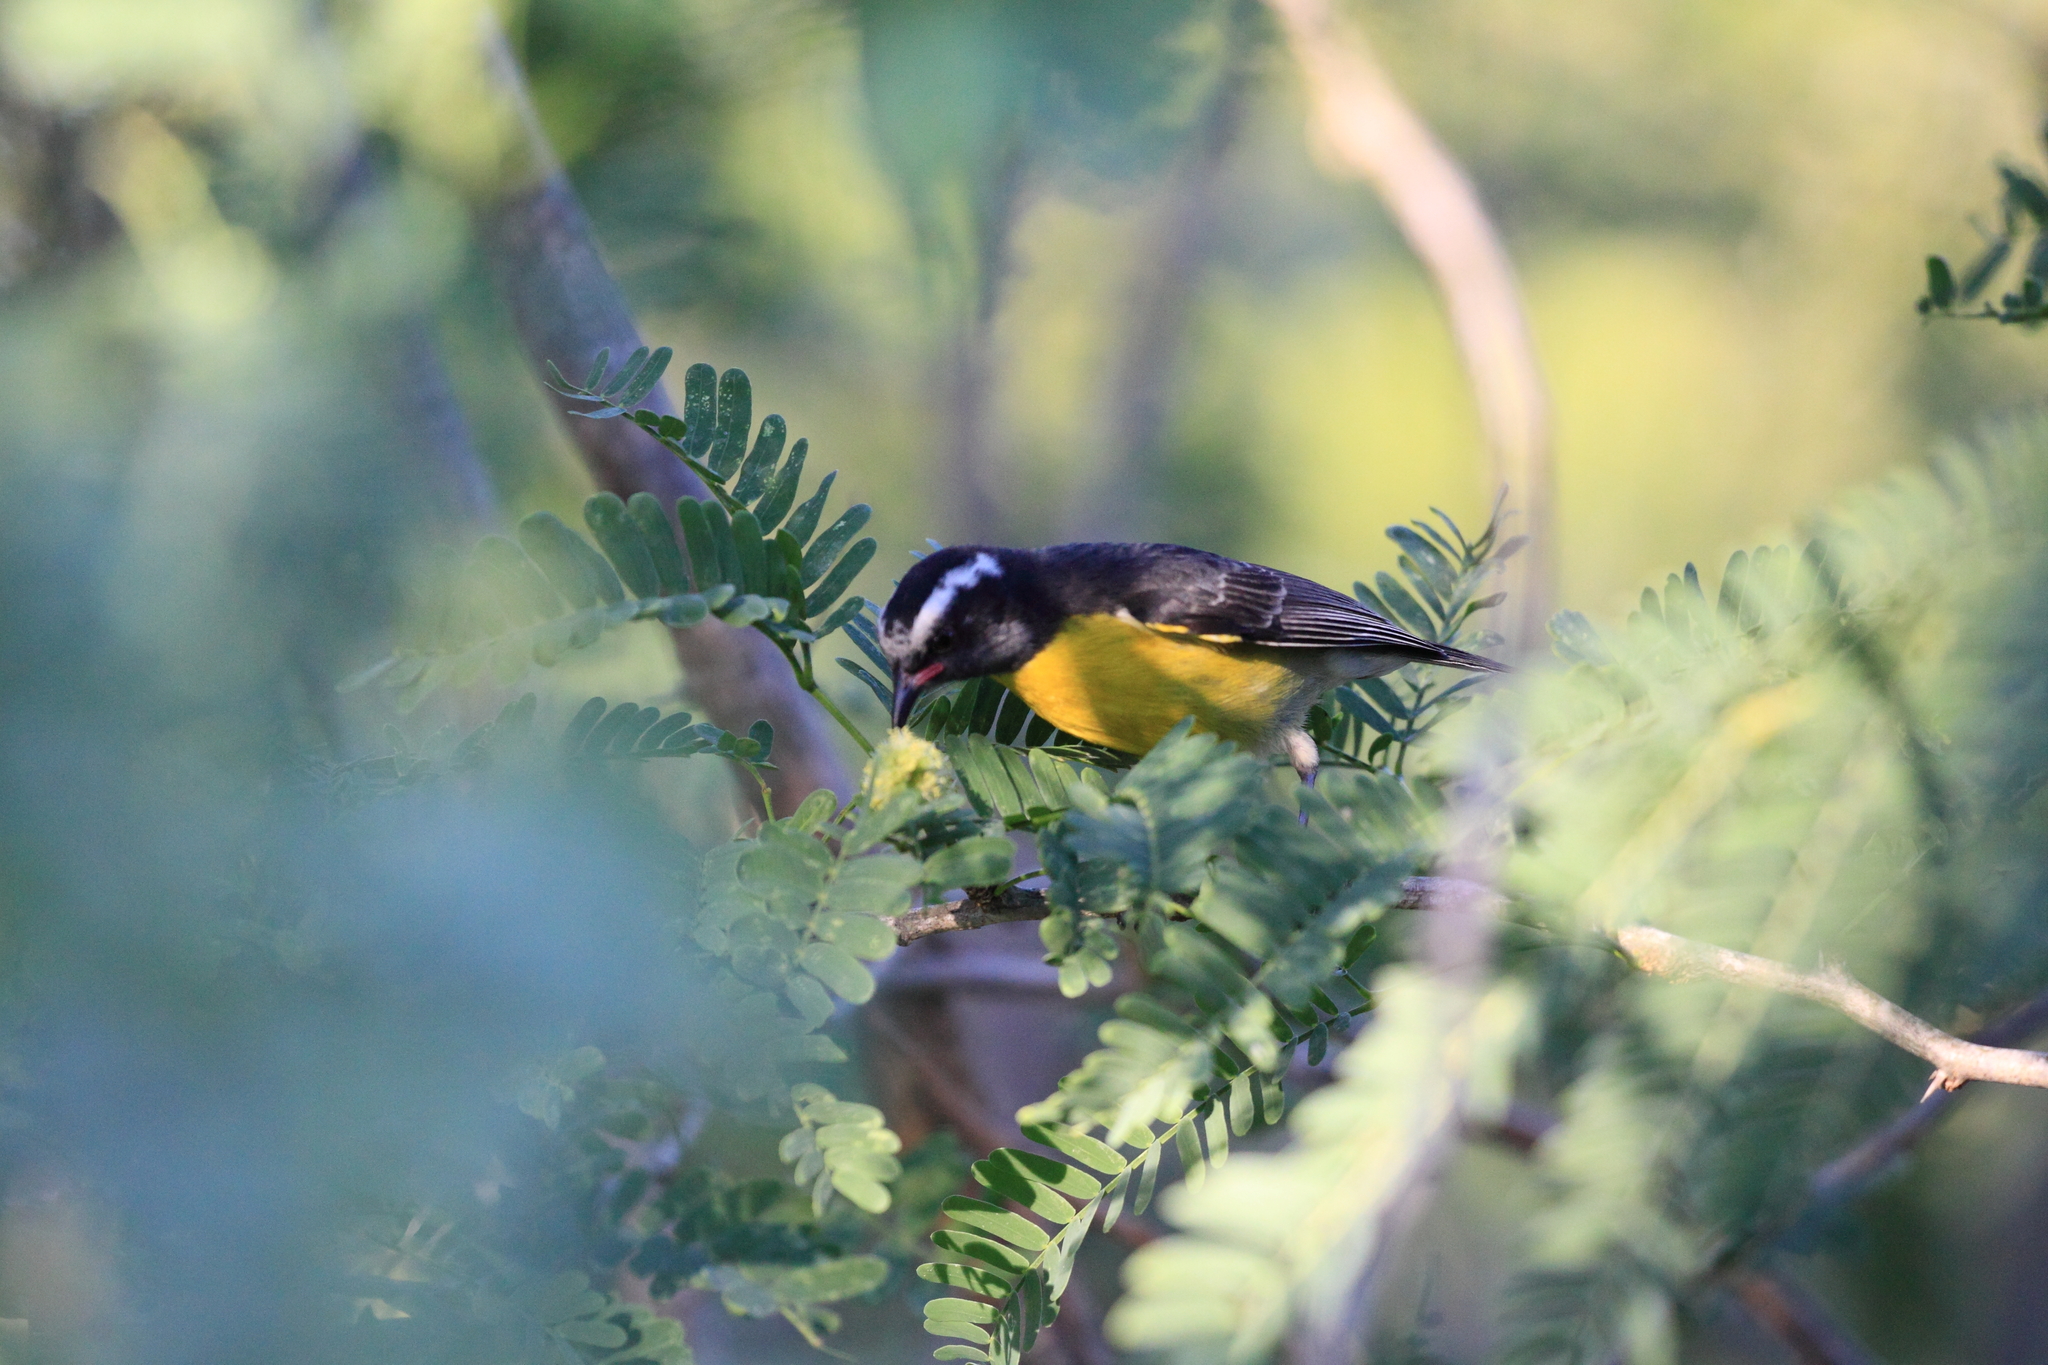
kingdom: Animalia
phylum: Chordata
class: Aves
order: Passeriformes
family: Thraupidae
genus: Coereba
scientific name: Coereba flaveola
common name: Bananaquit
